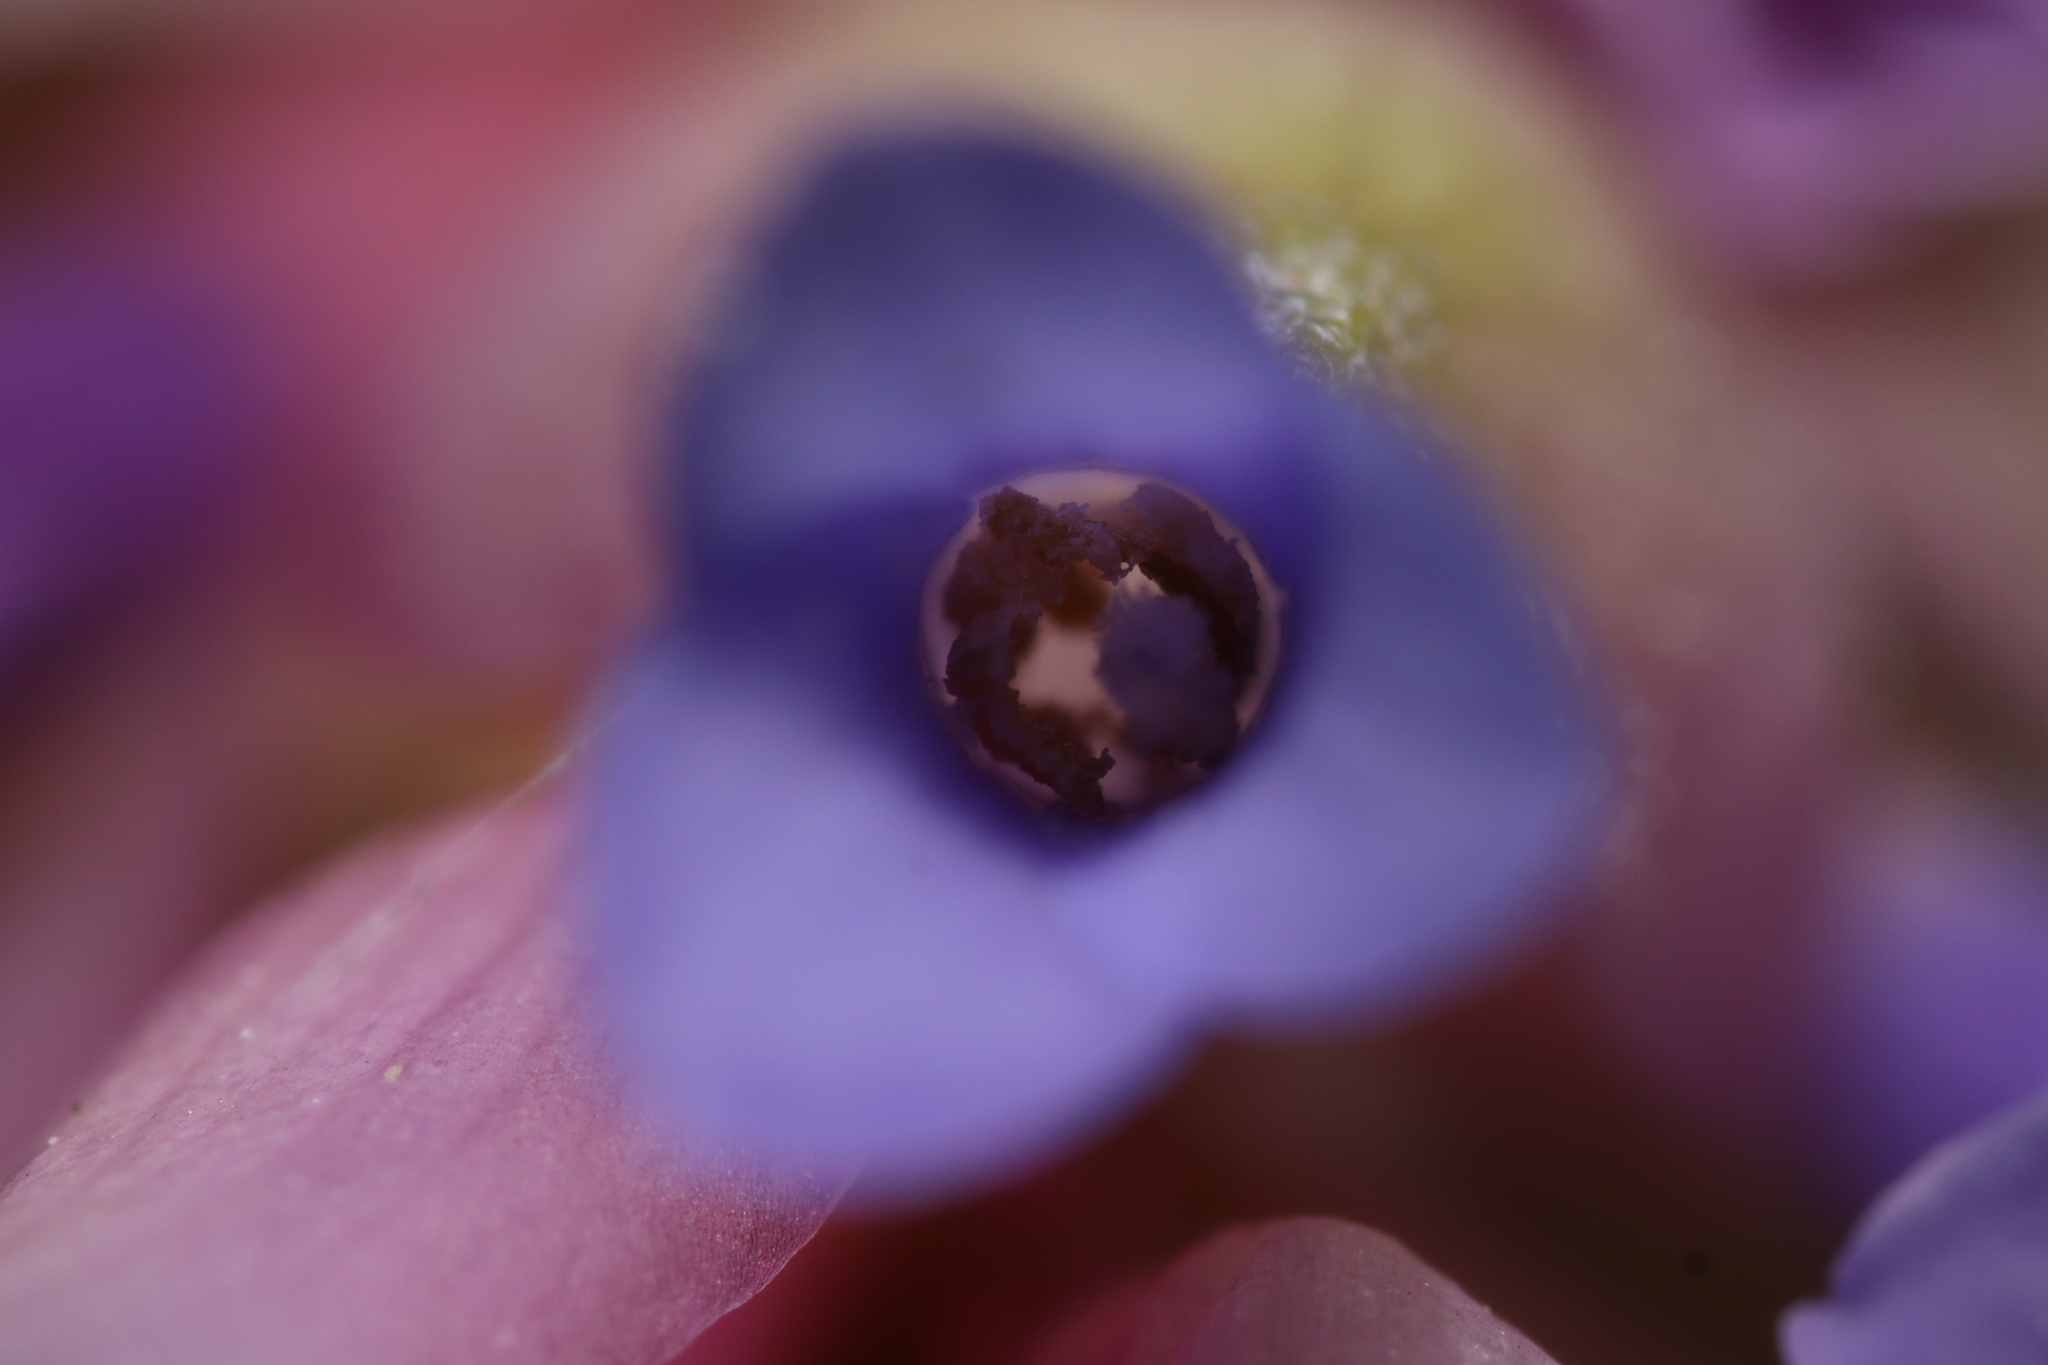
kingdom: Plantae
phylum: Tracheophyta
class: Liliopsida
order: Poales
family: Bromeliaceae
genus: Tillandsia
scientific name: Tillandsia stricta
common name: Airplant
